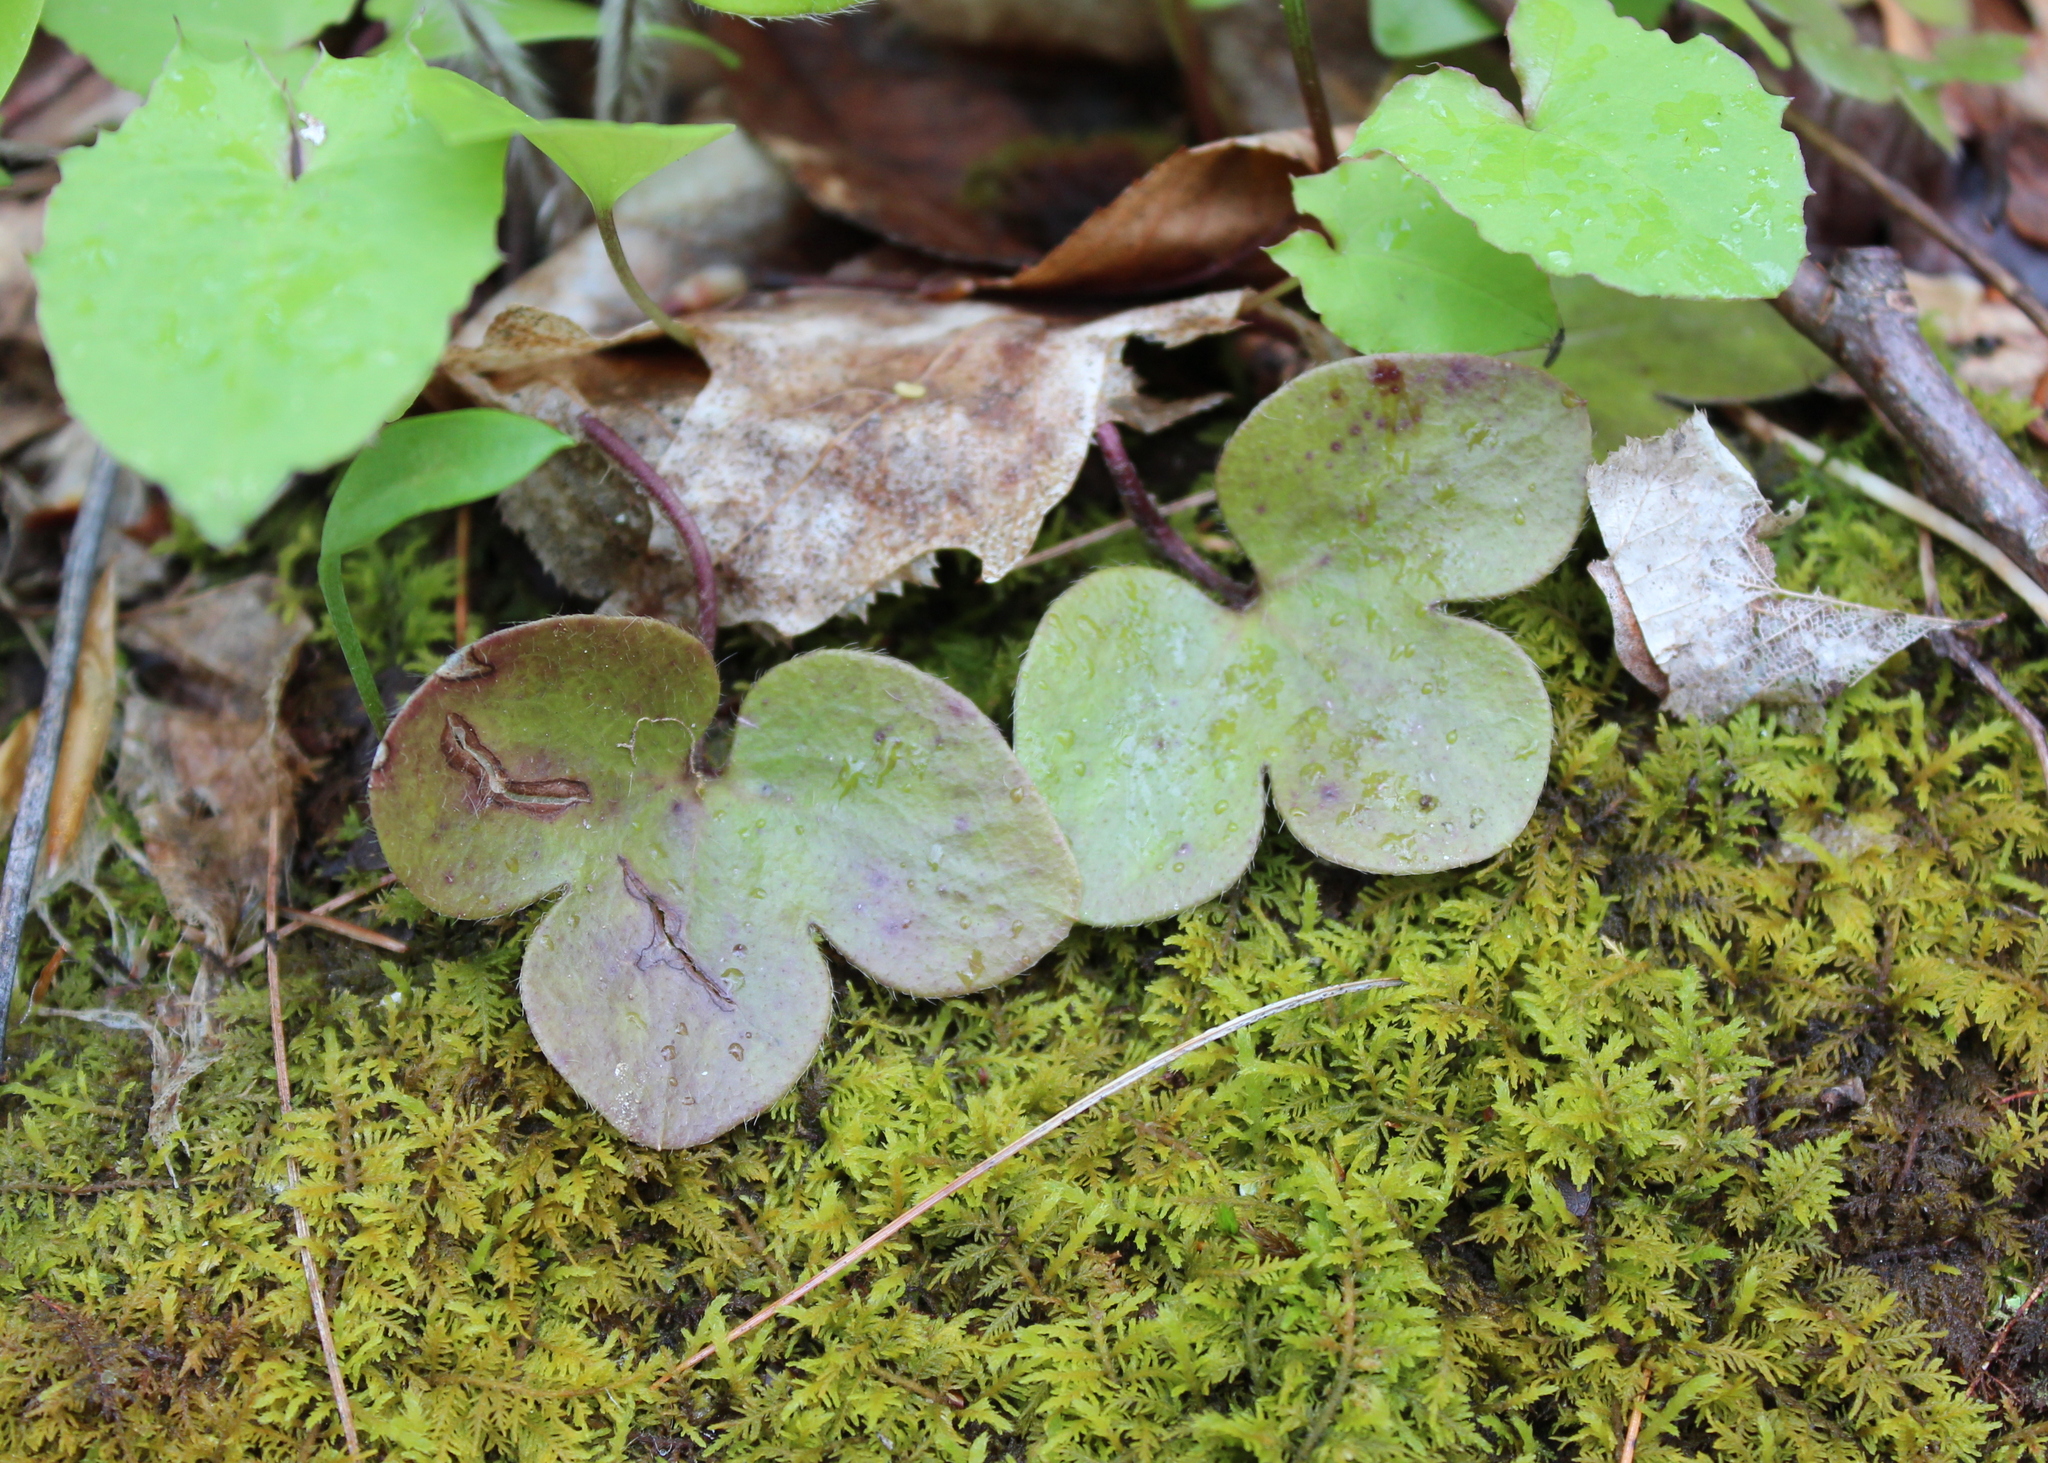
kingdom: Plantae
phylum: Tracheophyta
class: Magnoliopsida
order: Ranunculales
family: Ranunculaceae
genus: Hepatica
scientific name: Hepatica americana
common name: American hepatica
